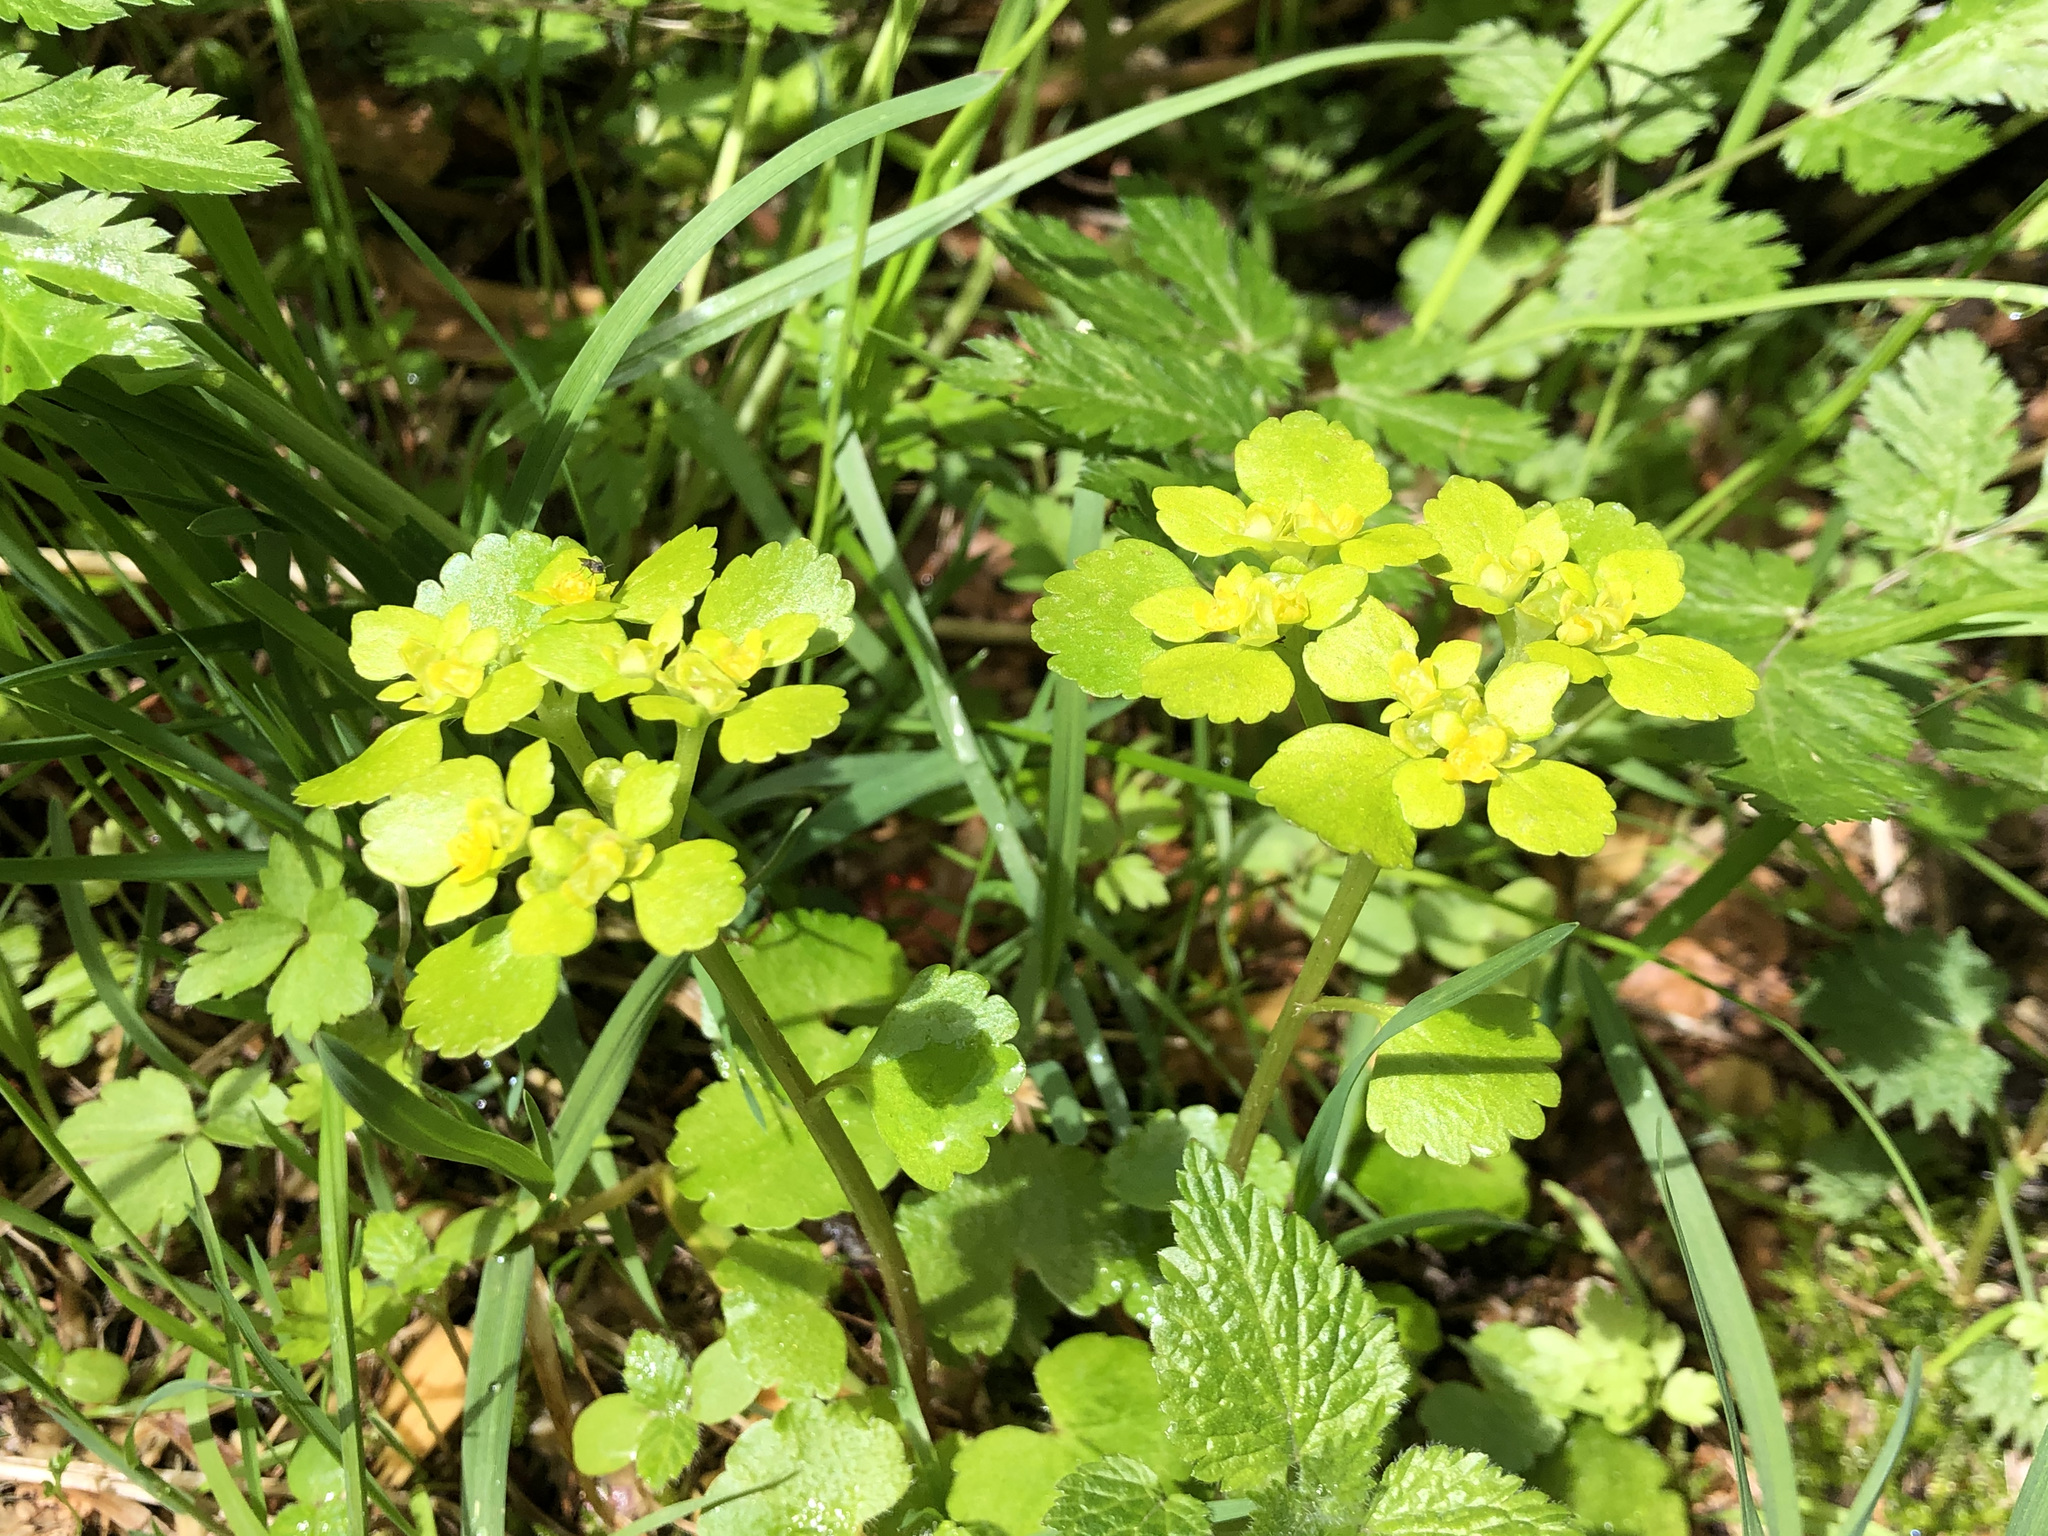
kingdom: Plantae
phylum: Tracheophyta
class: Magnoliopsida
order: Saxifragales
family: Saxifragaceae
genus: Chrysosplenium
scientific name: Chrysosplenium alternifolium
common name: Alternate-leaved golden-saxifrage
